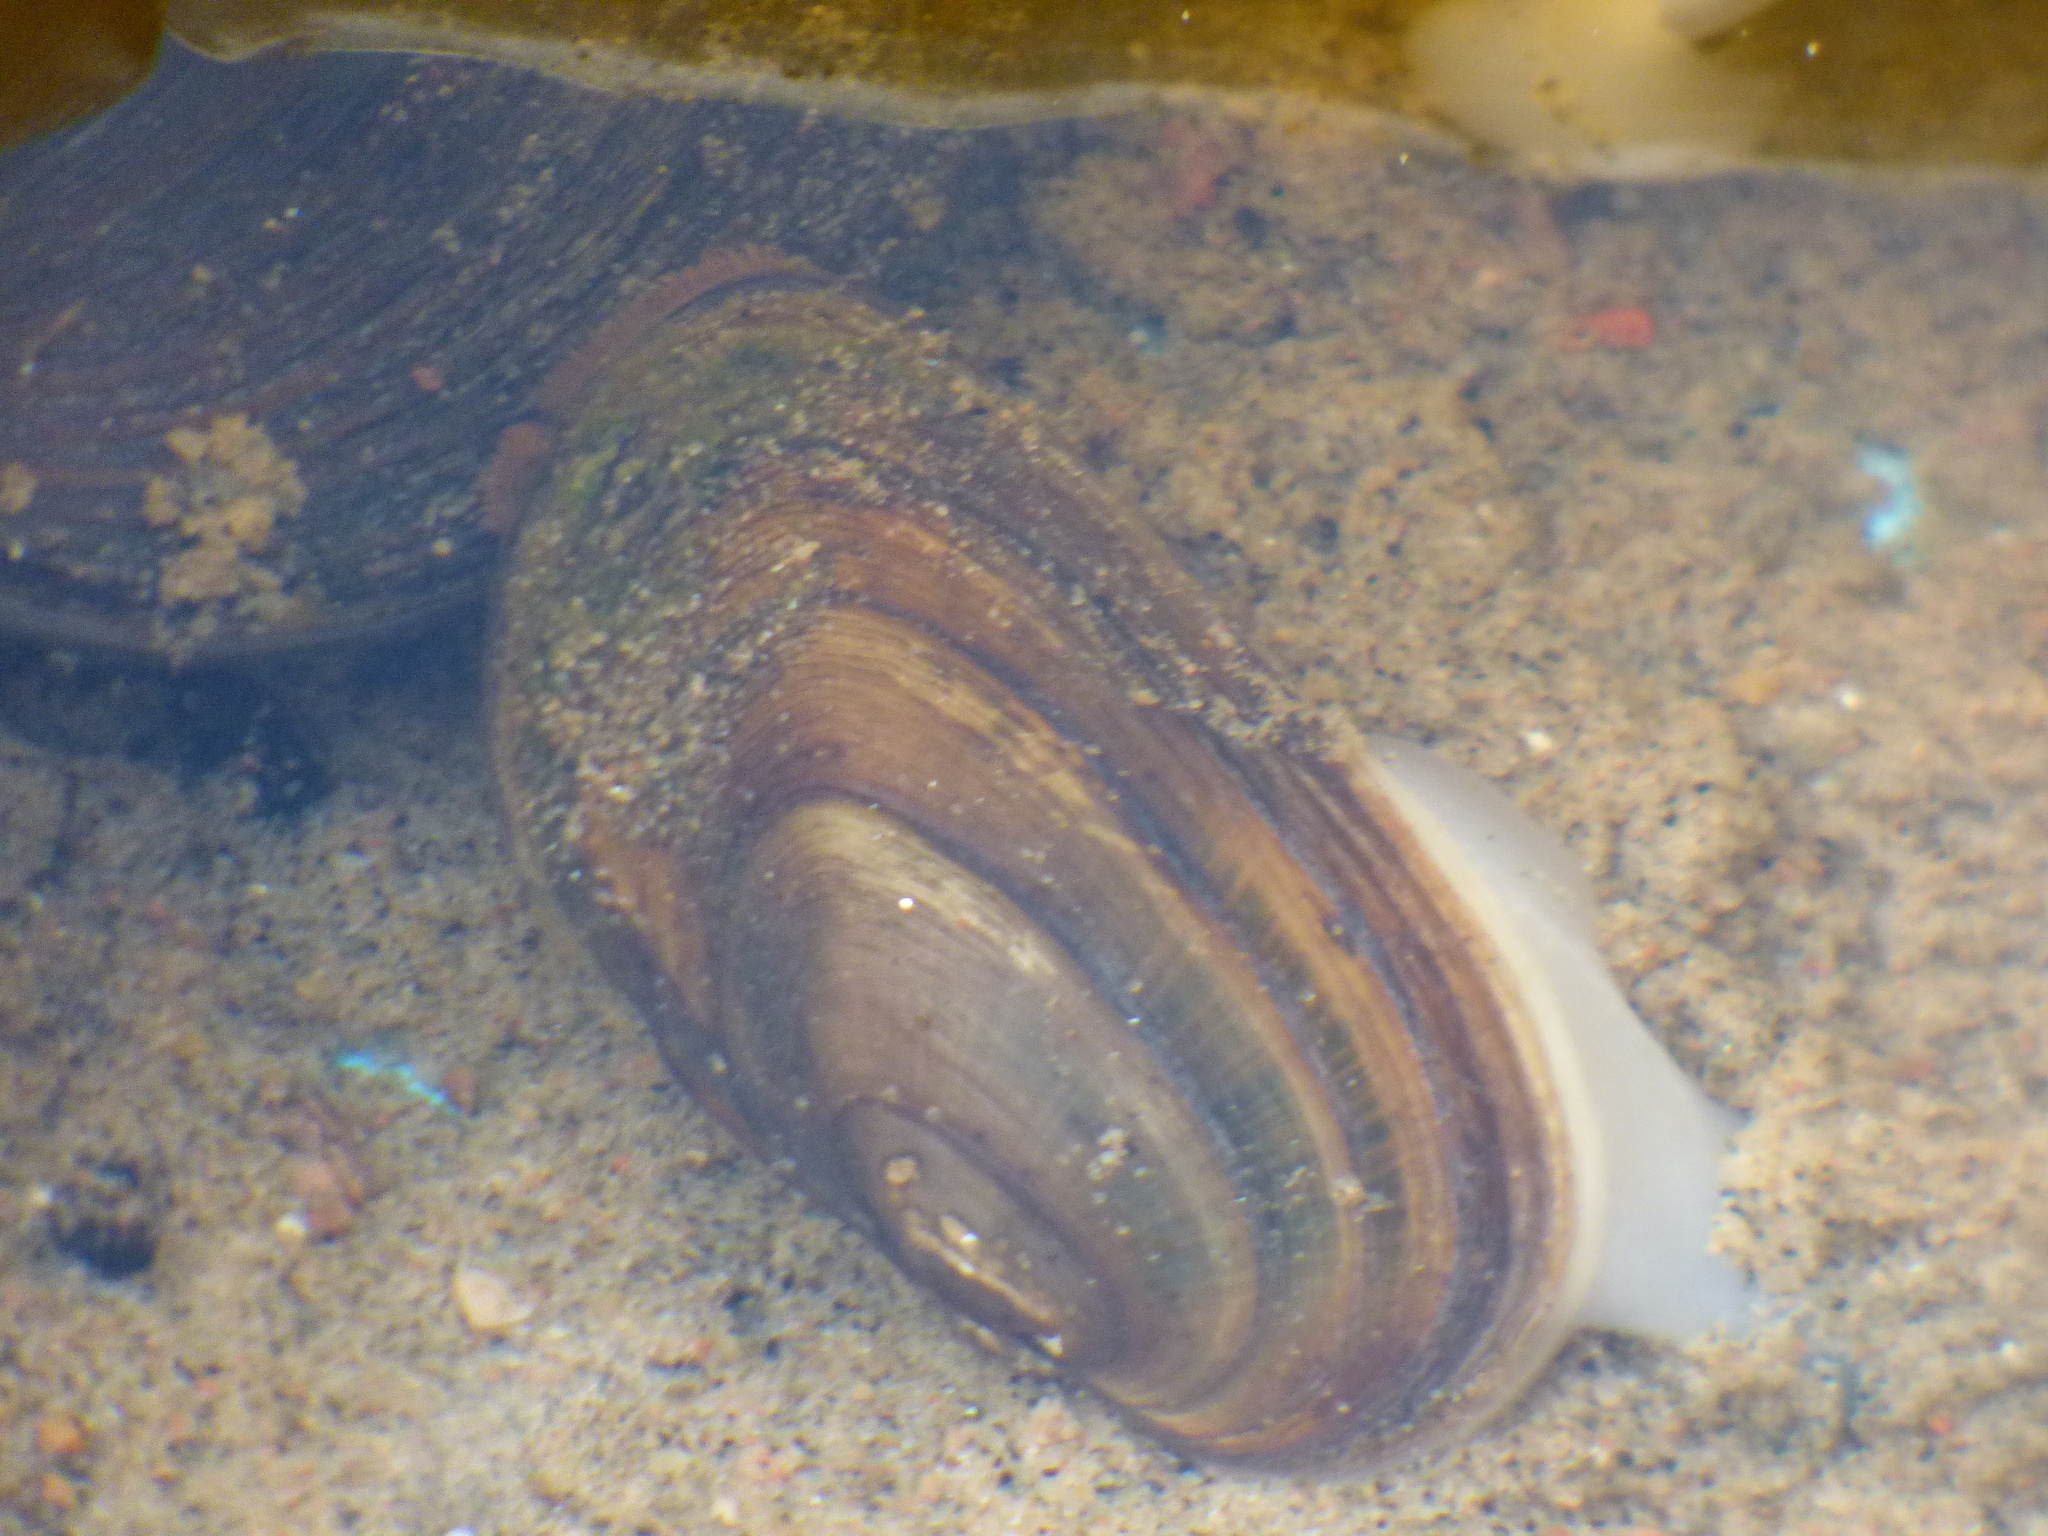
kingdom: Animalia
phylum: Mollusca
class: Bivalvia
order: Unionida
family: Unionidae
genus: Elliptio
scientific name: Elliptio complanata
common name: Eastern elliptio
